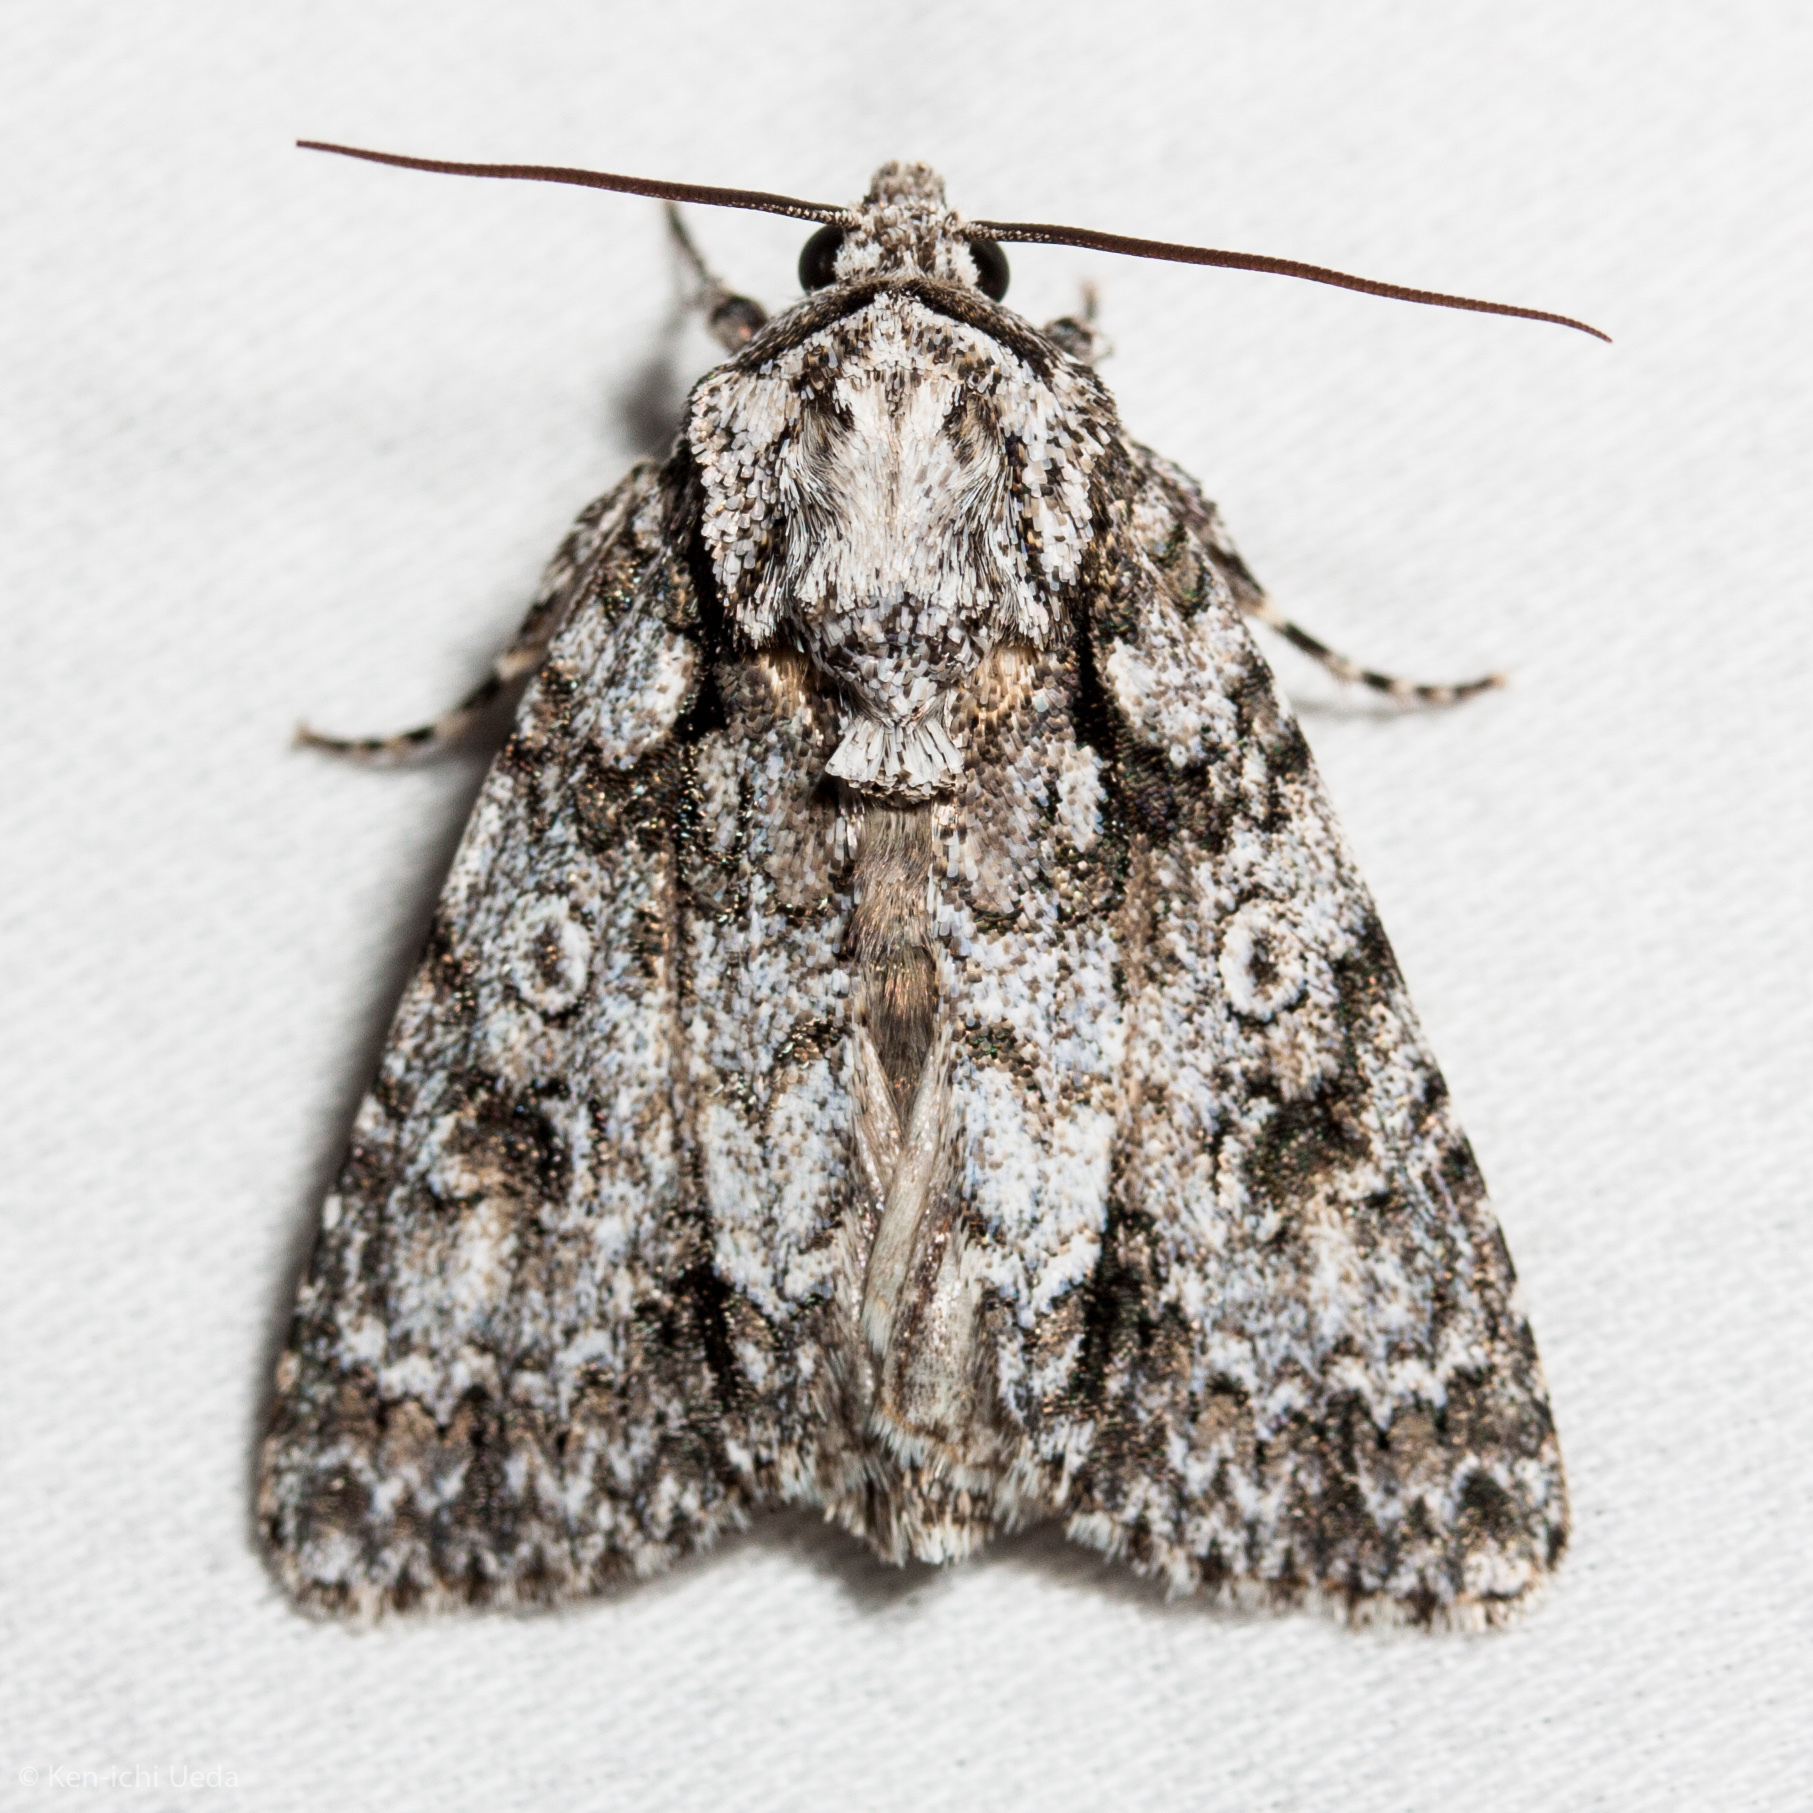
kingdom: Animalia
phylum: Arthropoda
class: Insecta
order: Lepidoptera
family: Noctuidae
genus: Acronicta
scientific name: Acronicta marmorata
